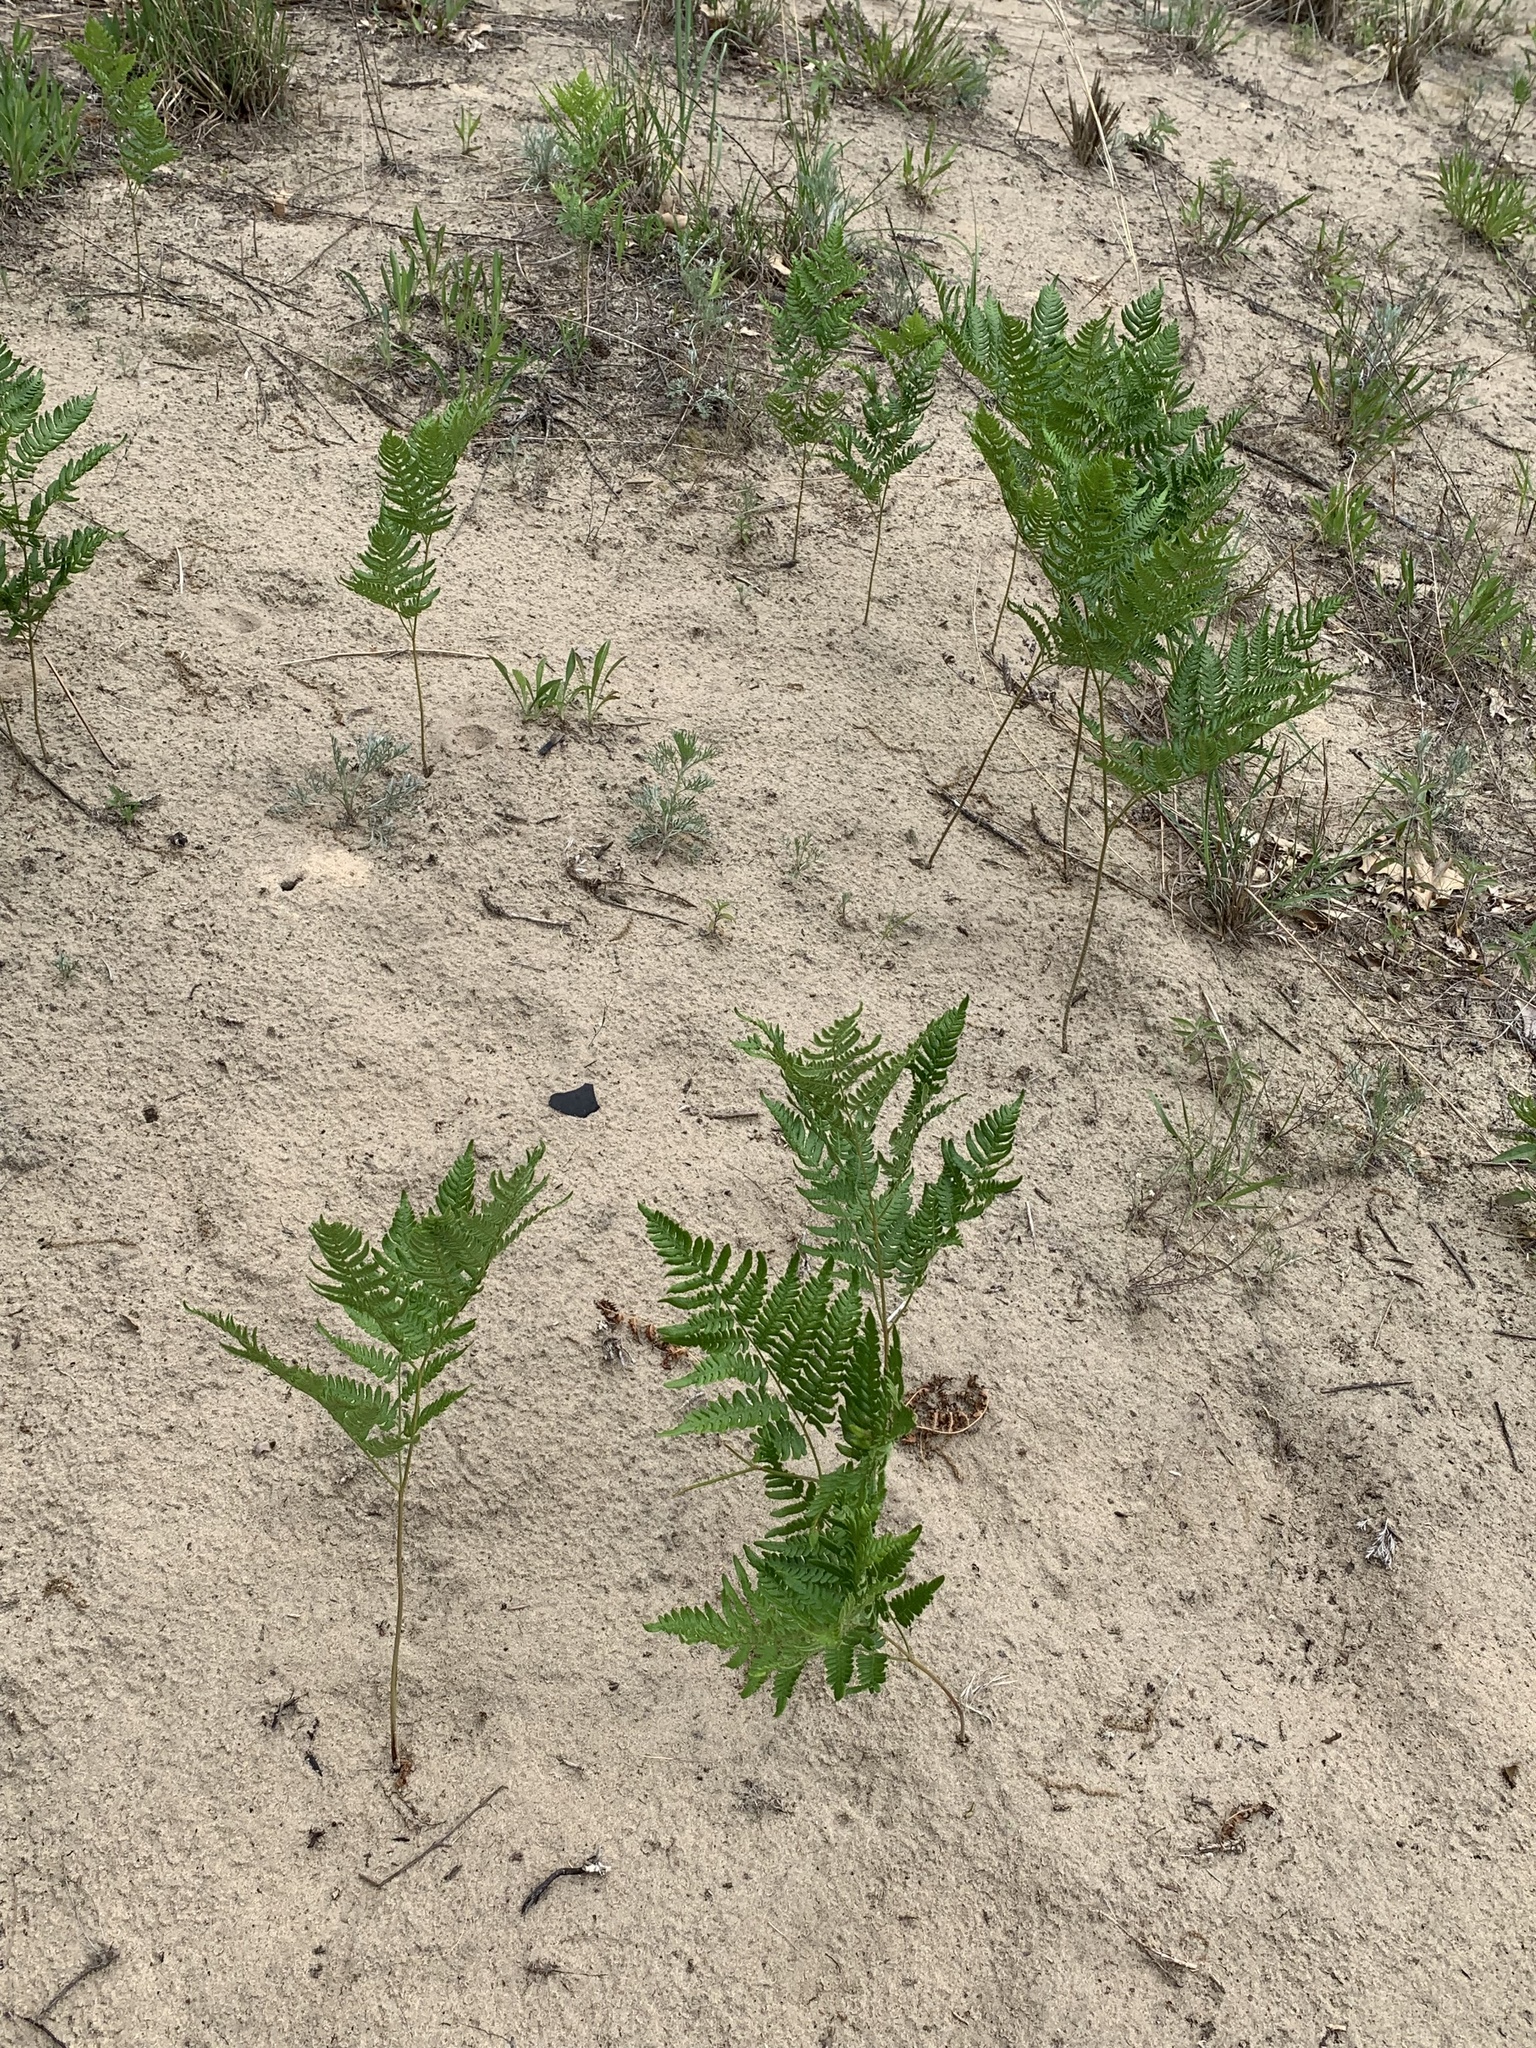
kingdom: Plantae
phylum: Tracheophyta
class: Polypodiopsida
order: Polypodiales
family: Dennstaedtiaceae
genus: Pteridium
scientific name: Pteridium aquilinum
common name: Bracken
